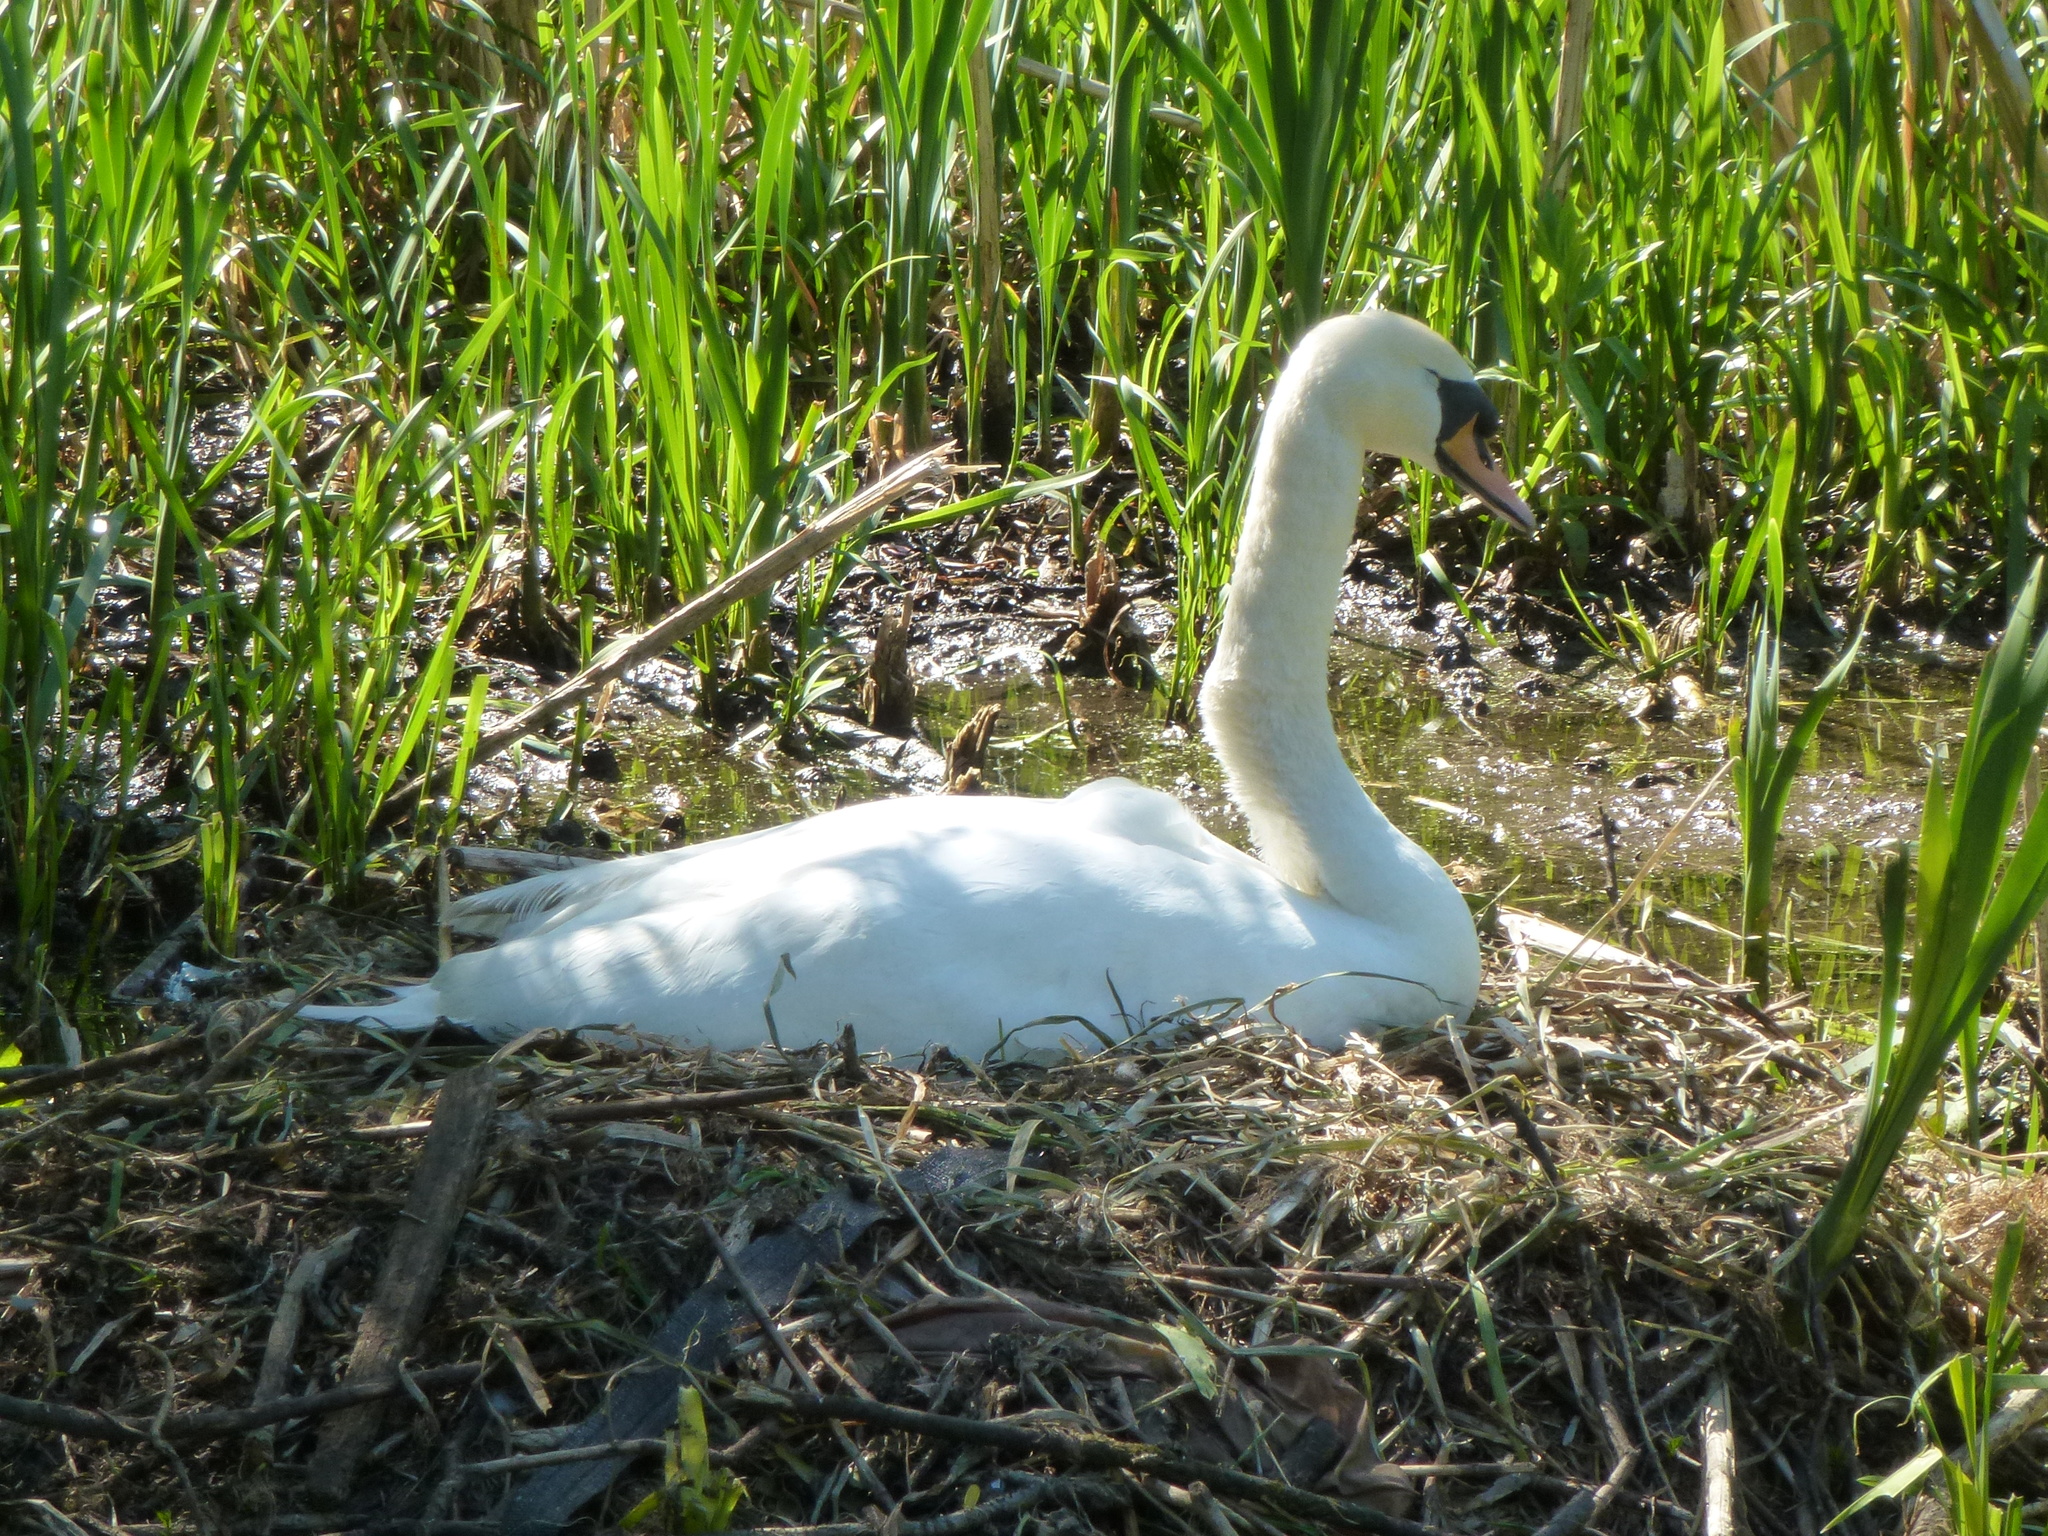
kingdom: Animalia
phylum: Chordata
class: Aves
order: Anseriformes
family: Anatidae
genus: Cygnus
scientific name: Cygnus olor
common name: Mute swan
